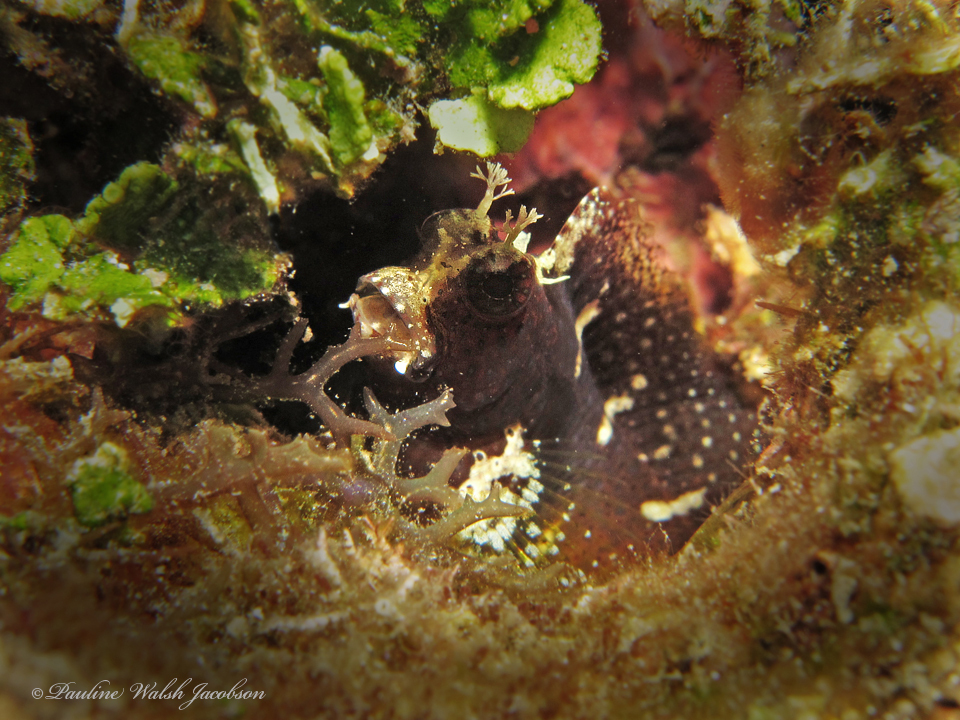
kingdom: Animalia
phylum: Chordata
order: Perciformes
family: Blenniidae
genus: Salarias
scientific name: Salarias ramosus
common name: Snowflake blenny
